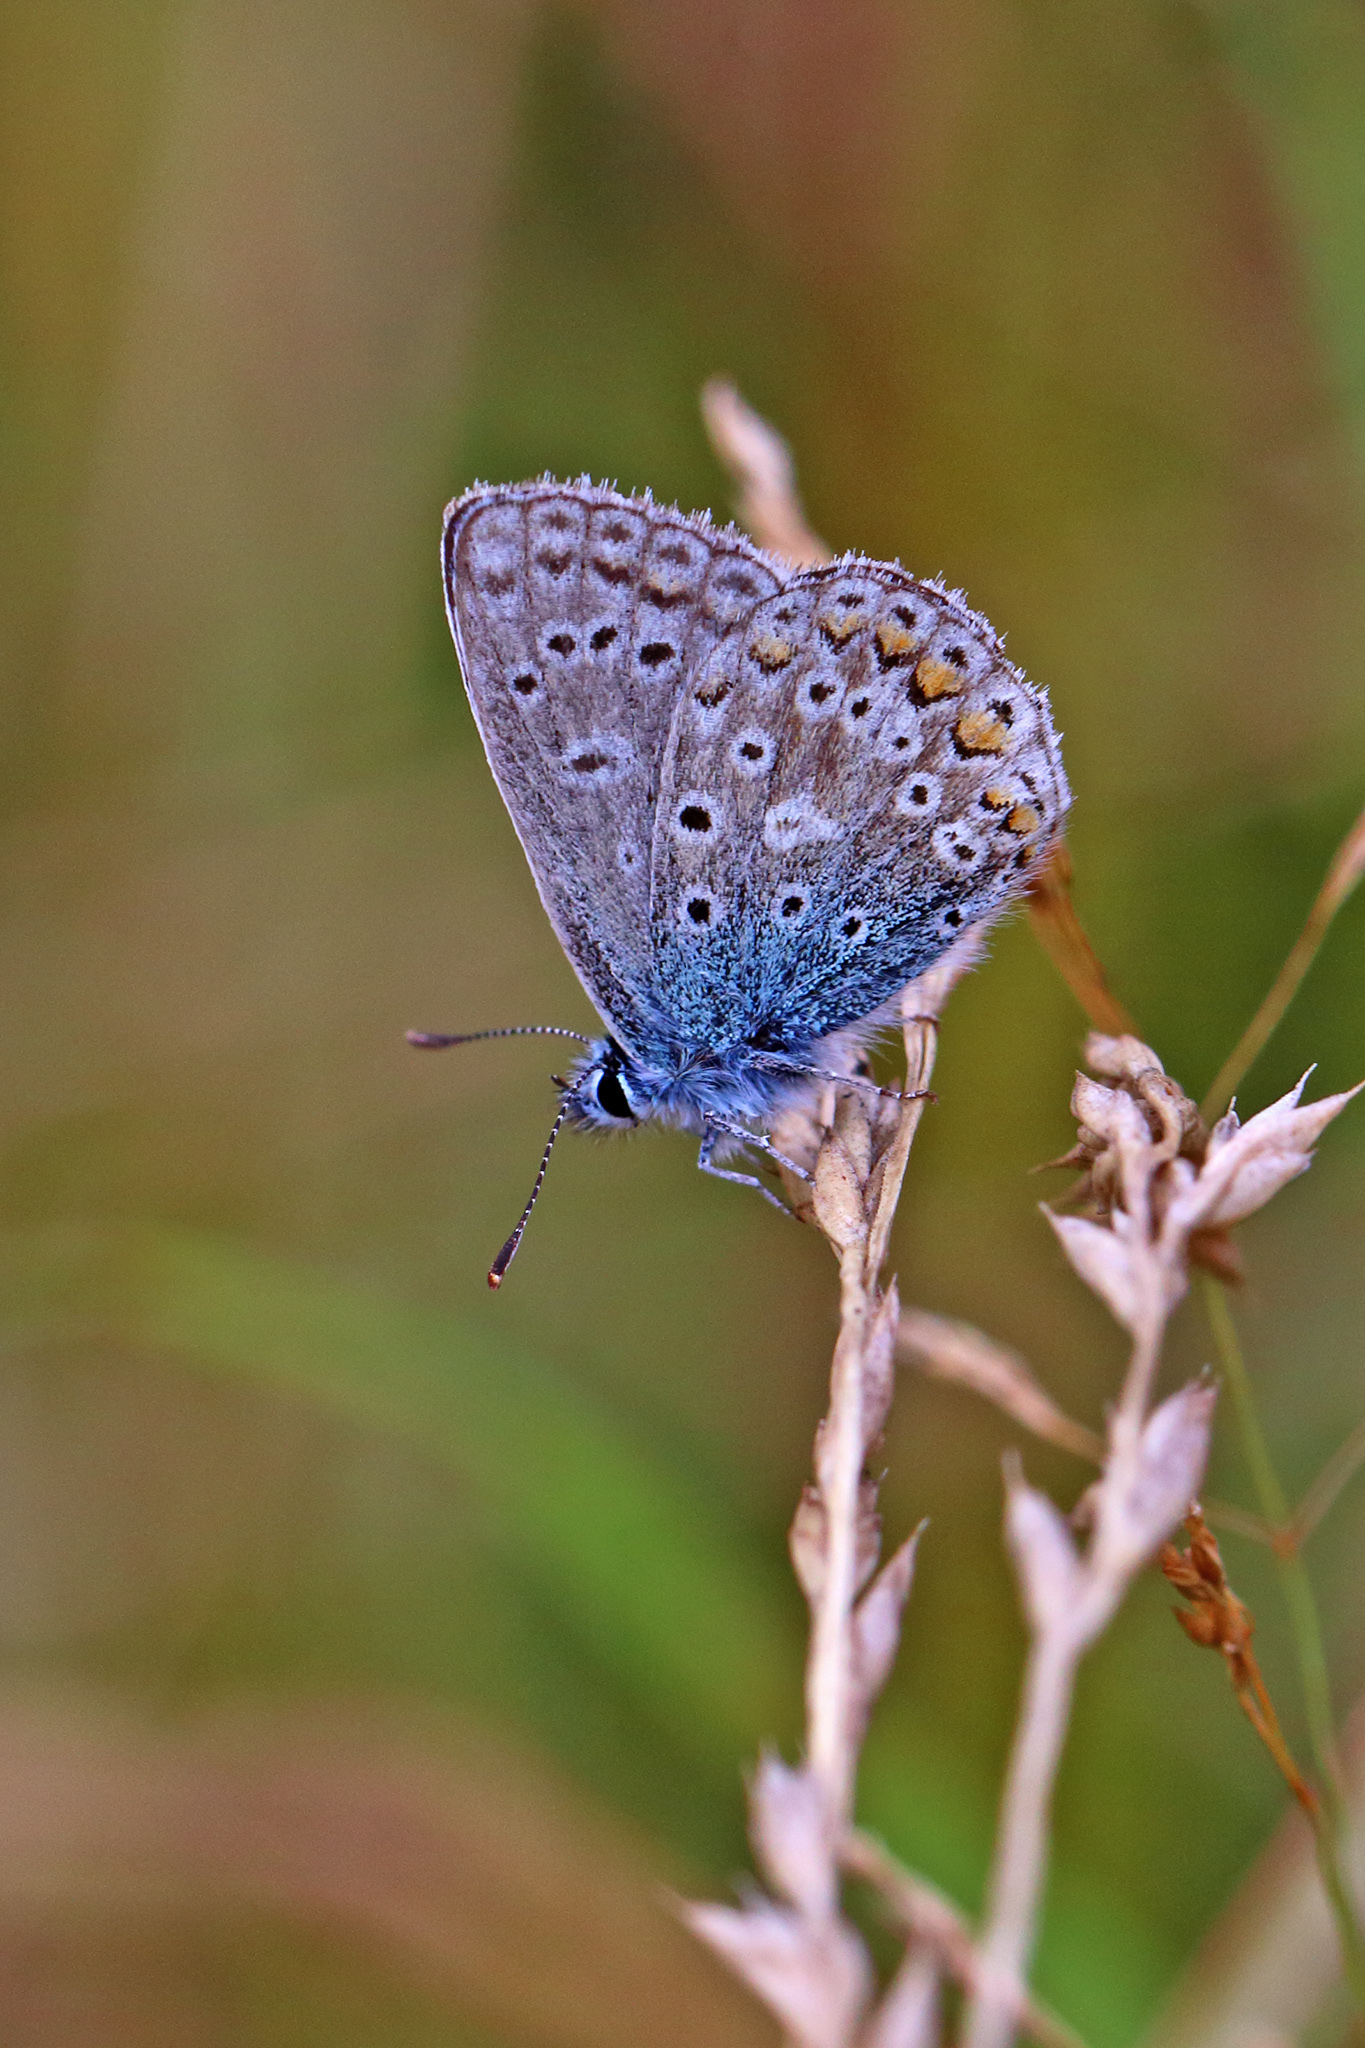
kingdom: Animalia
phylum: Arthropoda
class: Insecta
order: Lepidoptera
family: Lycaenidae
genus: Polyommatus
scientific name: Polyommatus icarus
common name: Common blue
